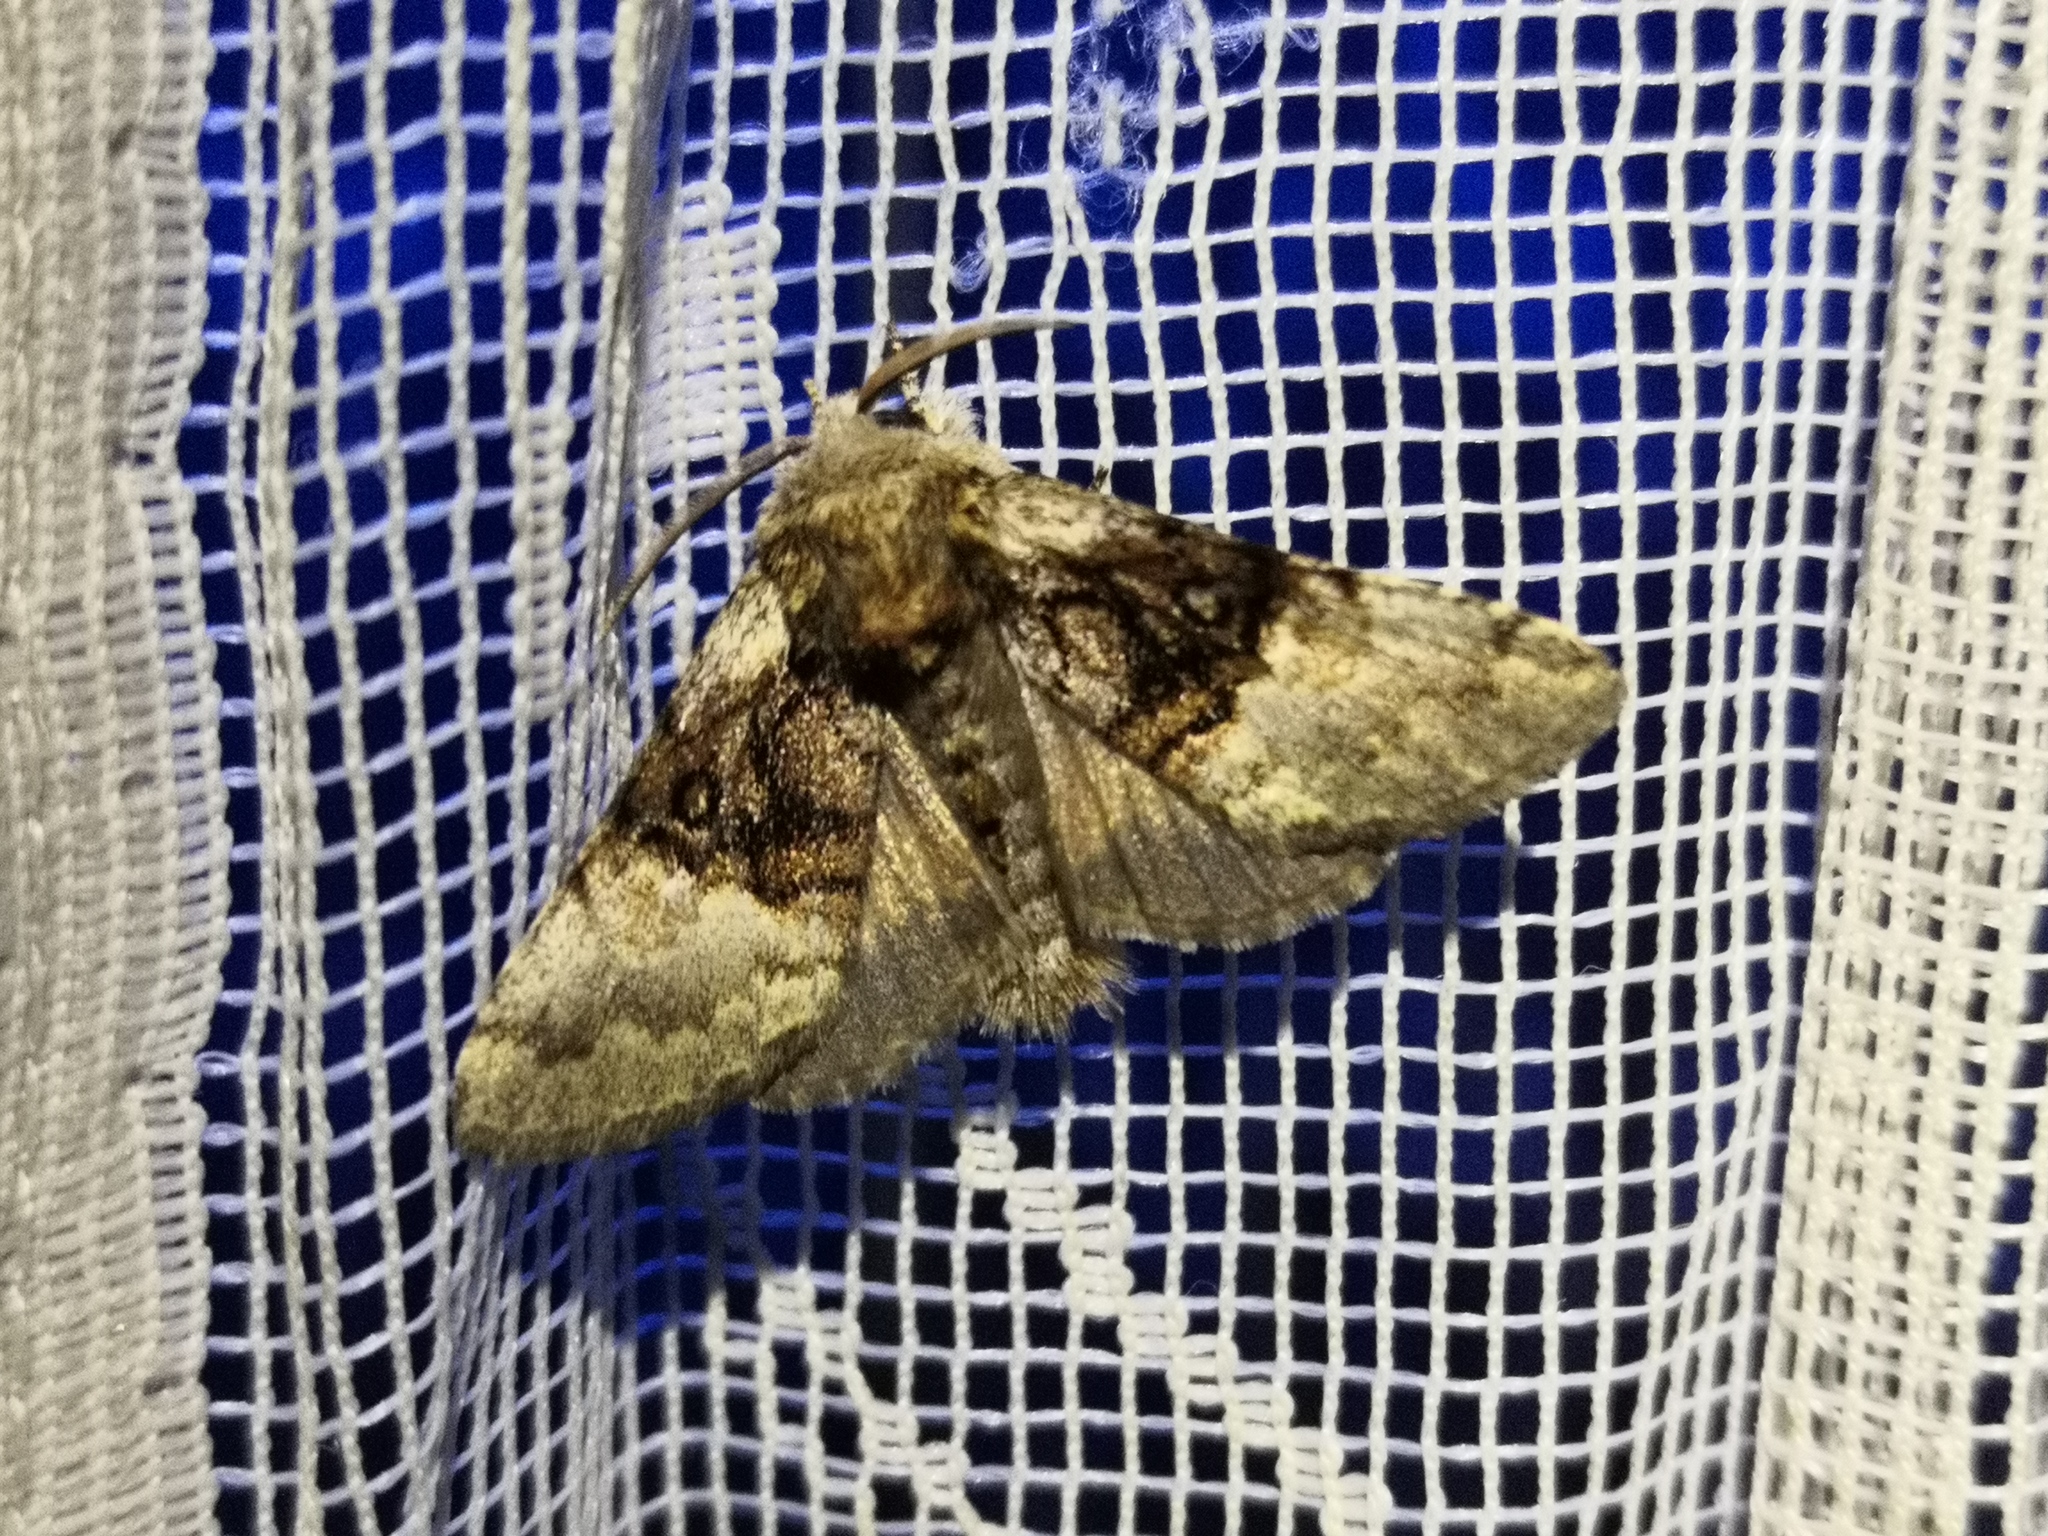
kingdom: Animalia
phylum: Arthropoda
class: Insecta
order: Lepidoptera
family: Noctuidae
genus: Colocasia
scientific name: Colocasia coryli
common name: Nut-tree tussock
